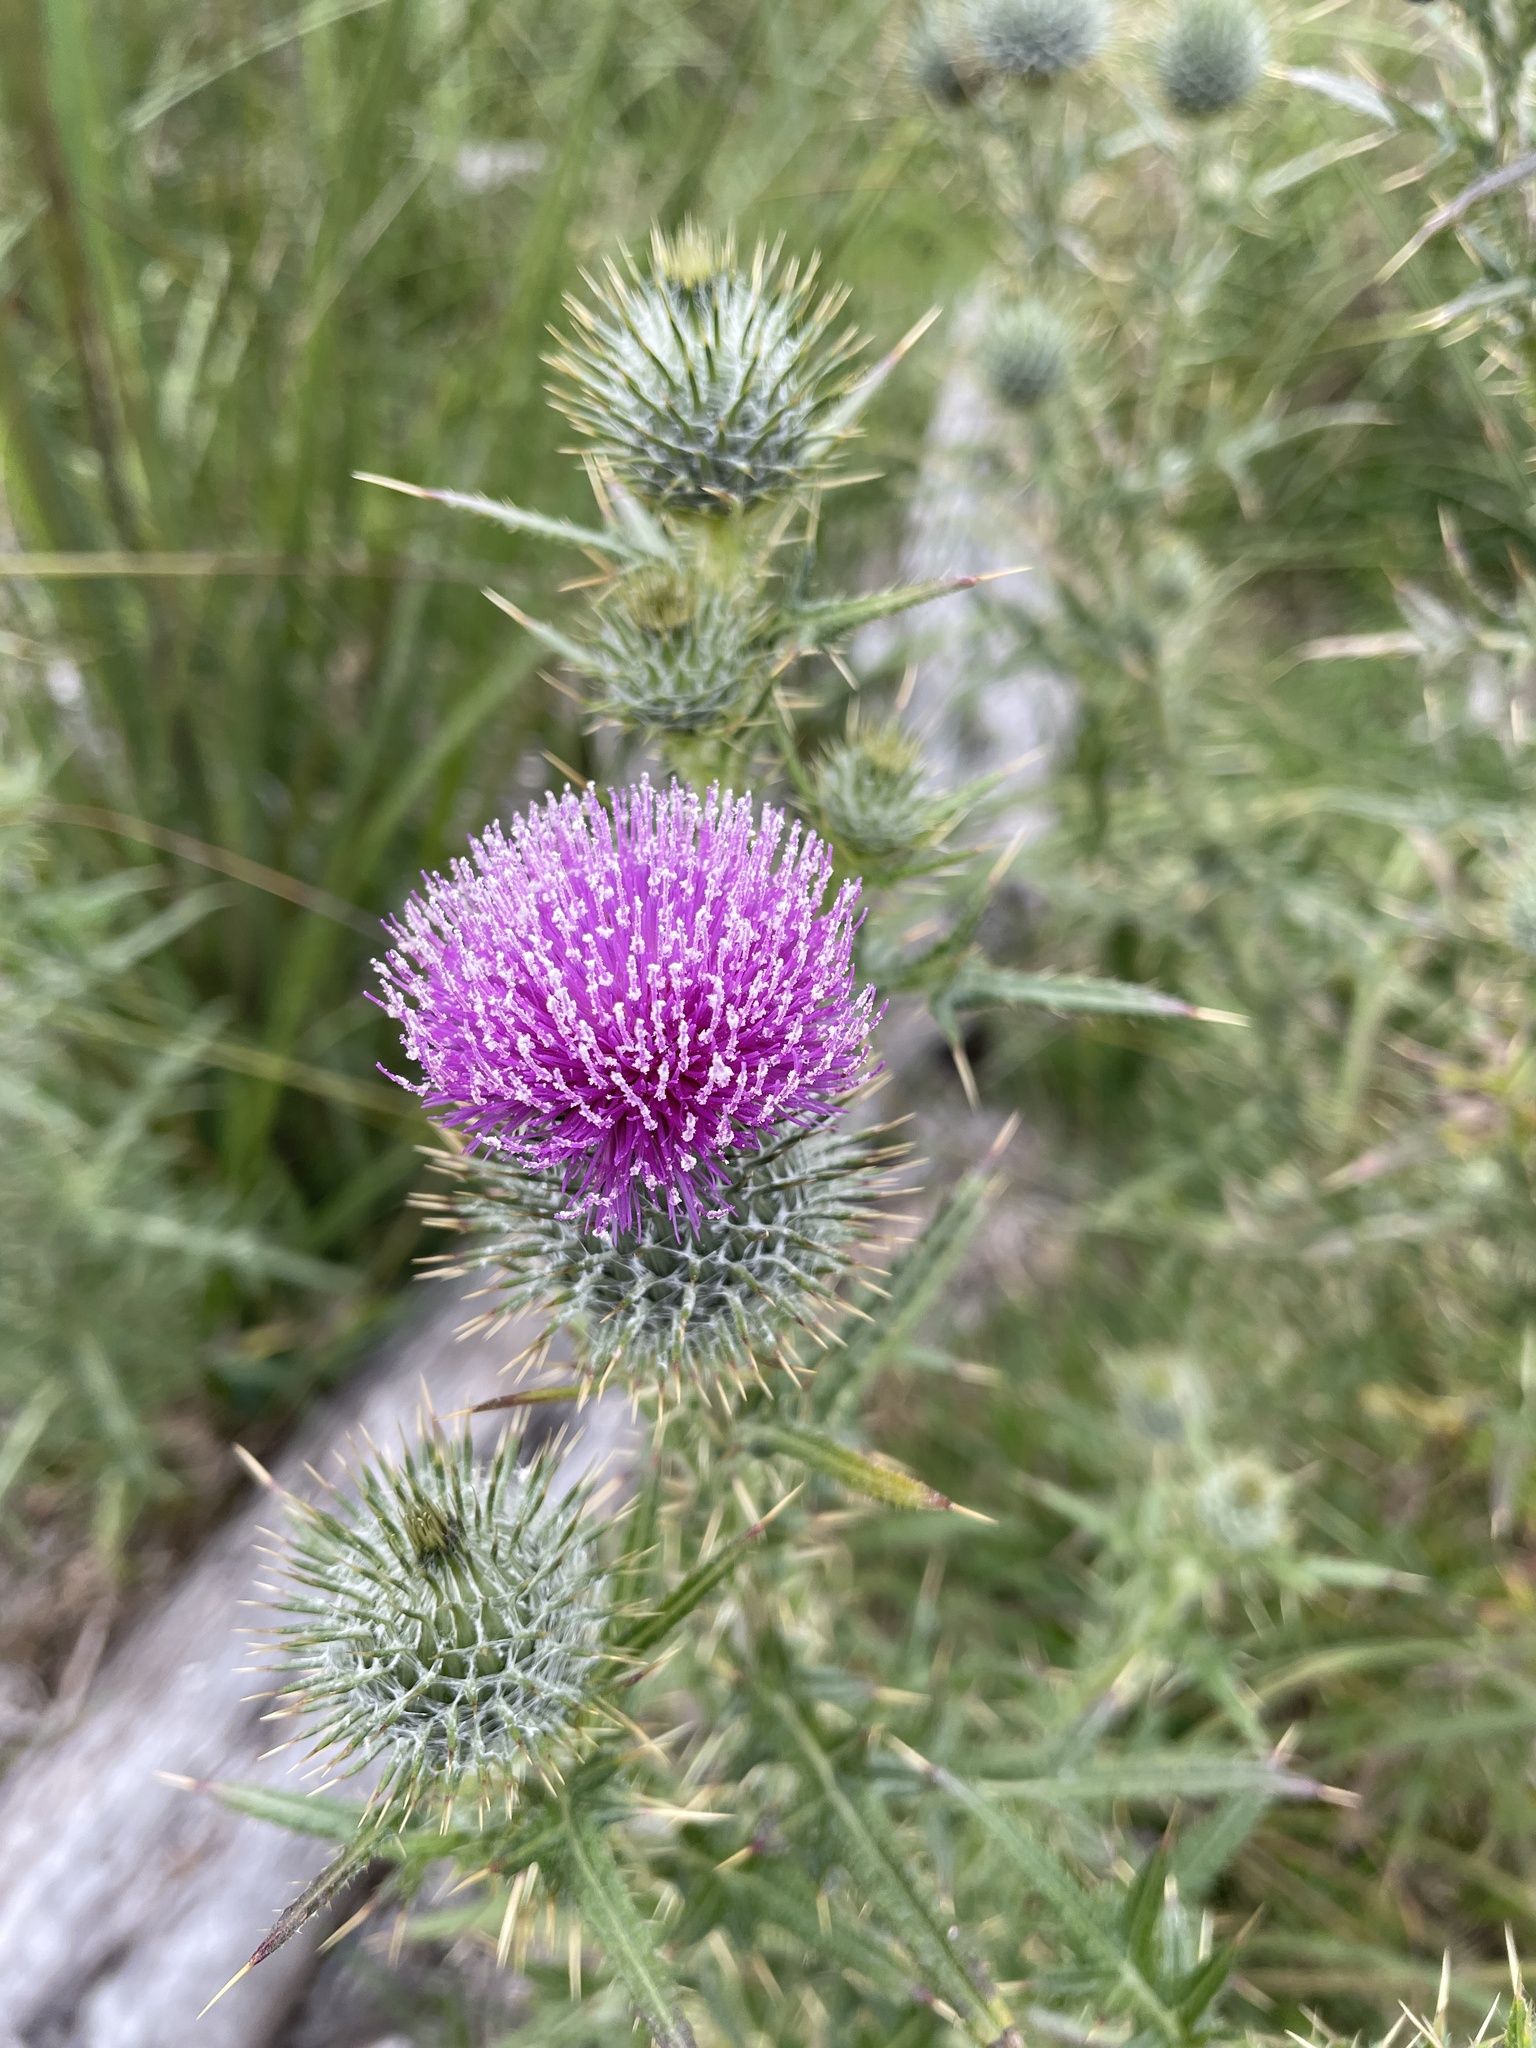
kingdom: Plantae
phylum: Tracheophyta
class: Magnoliopsida
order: Asterales
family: Asteraceae
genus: Cirsium
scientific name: Cirsium vulgare
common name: Bull thistle
